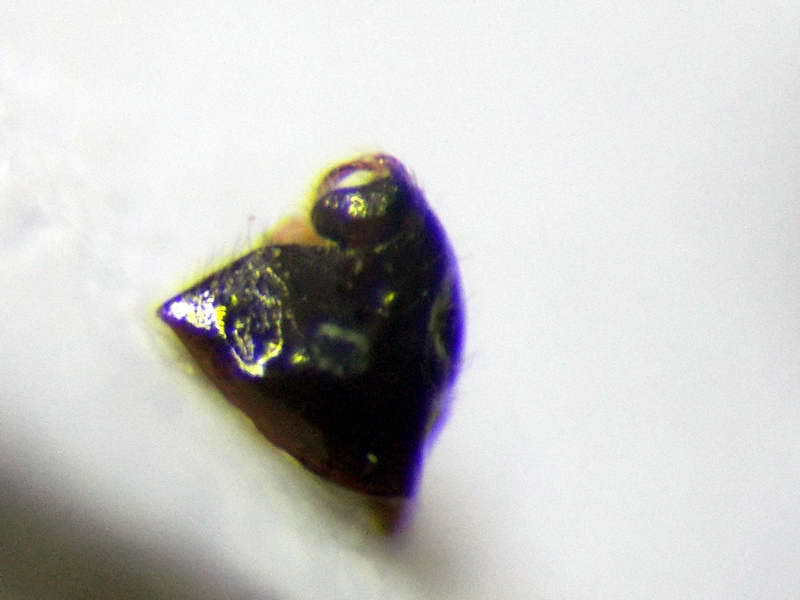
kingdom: Animalia
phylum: Arthropoda
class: Insecta
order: Hemiptera
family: Miridae
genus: Deraeocoris
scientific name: Deraeocoris serenus
